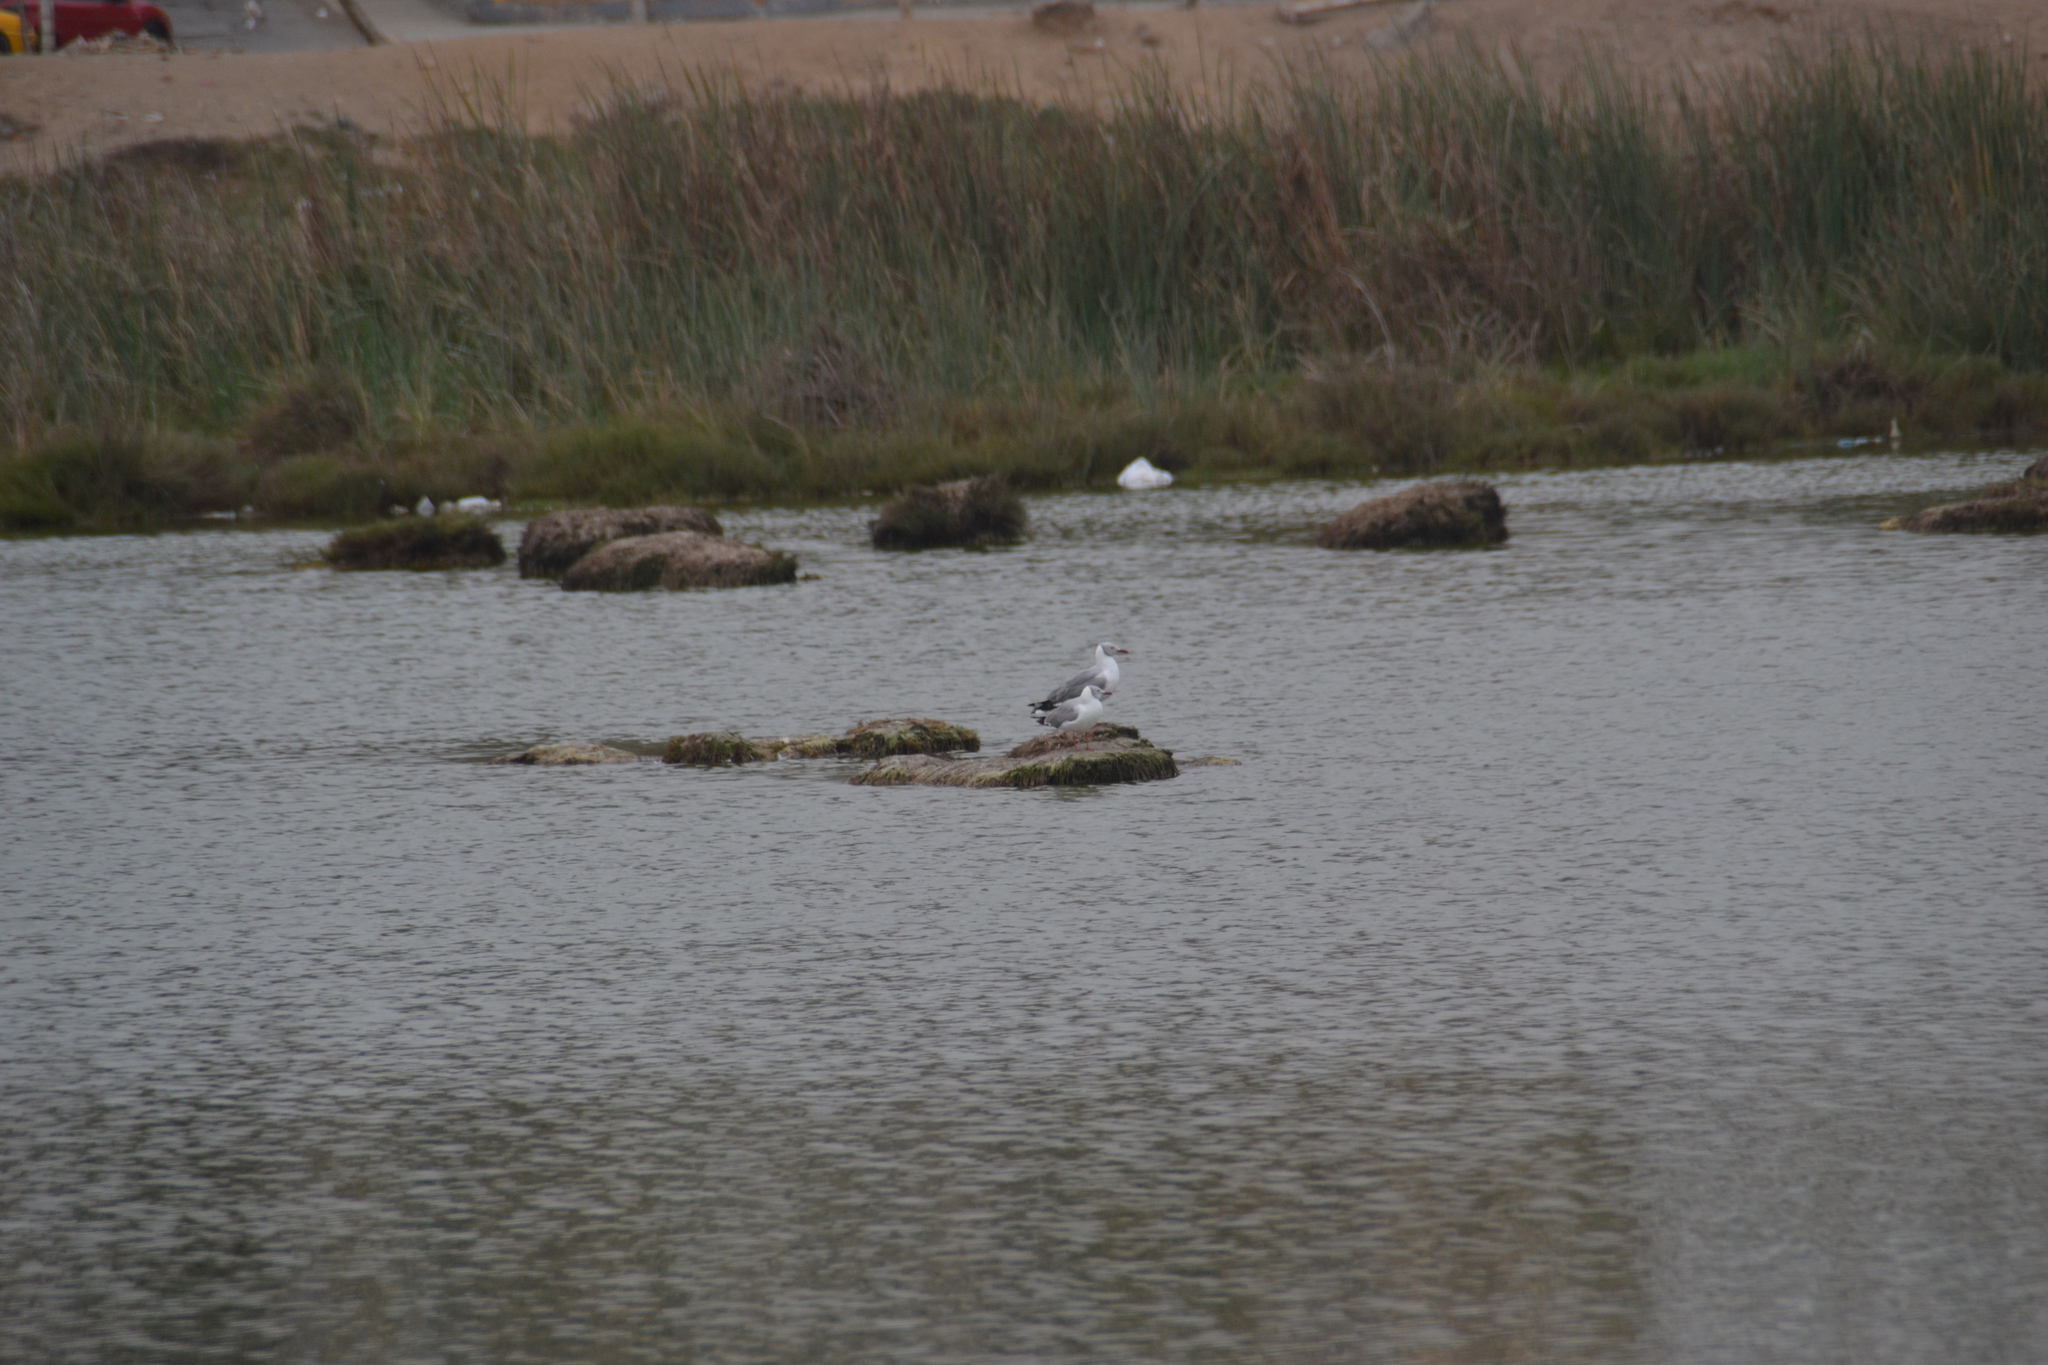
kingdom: Animalia
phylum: Chordata
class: Aves
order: Charadriiformes
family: Laridae
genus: Chroicocephalus
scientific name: Chroicocephalus cirrocephalus
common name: Grey-headed gull
